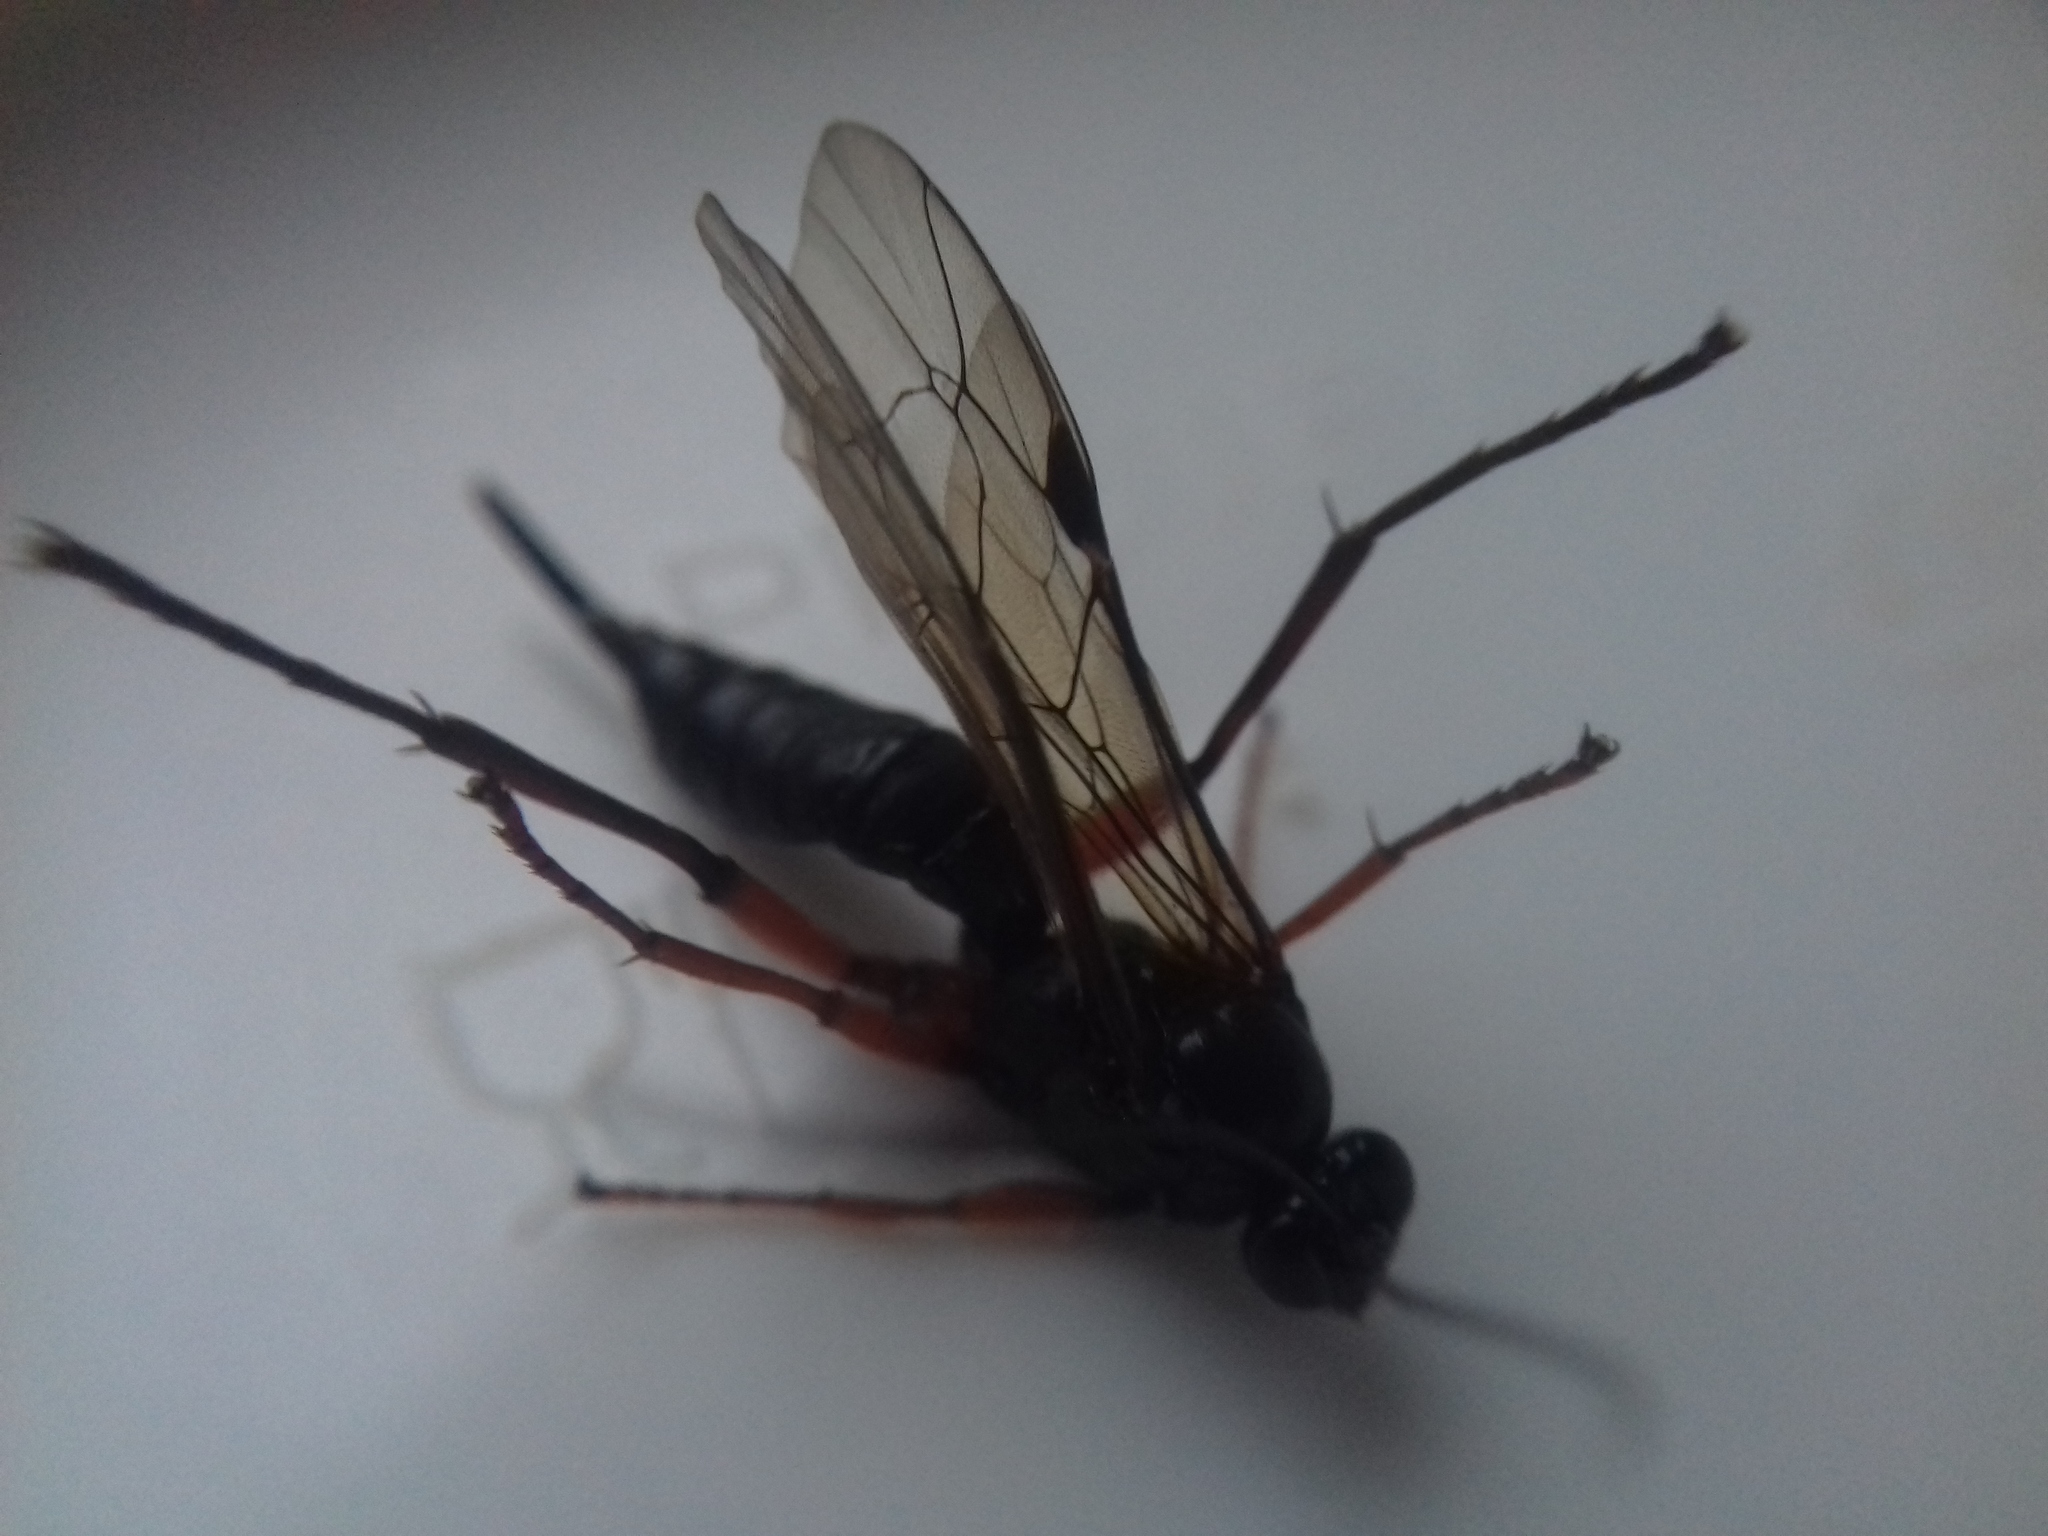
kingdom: Animalia
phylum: Arthropoda
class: Insecta
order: Hymenoptera
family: Ichneumonidae
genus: Pimpla
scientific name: Pimpla arctica
